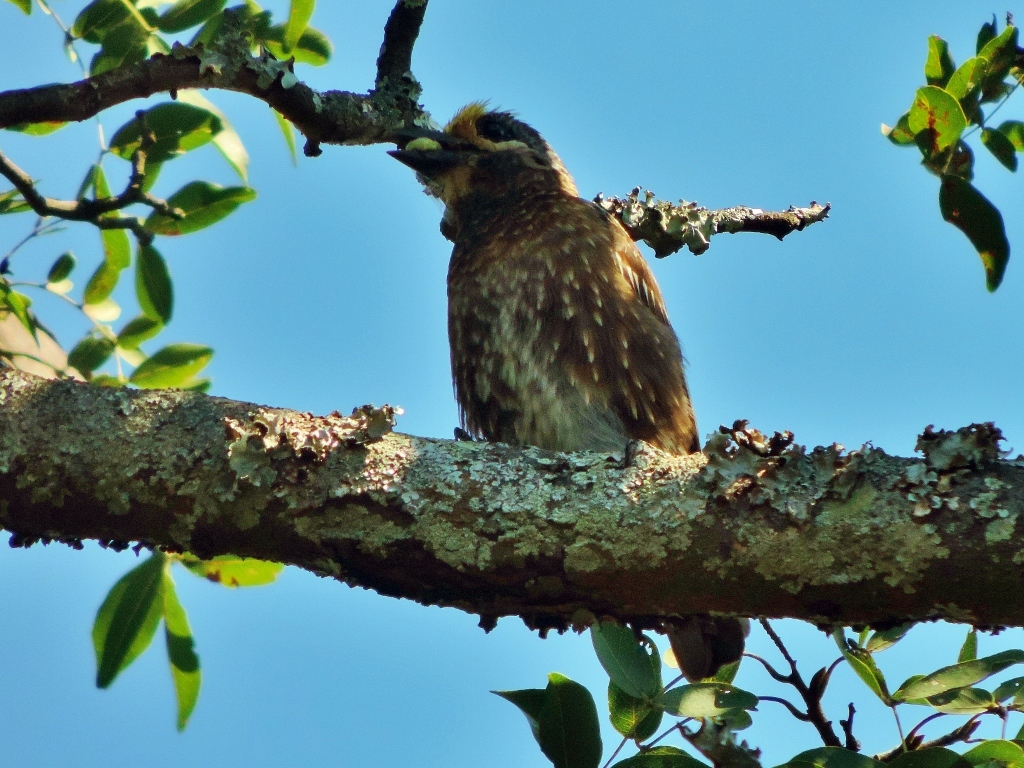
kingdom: Animalia
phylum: Chordata
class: Aves
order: Piciformes
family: Lybiidae
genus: Stactolaema
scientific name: Stactolaema whytii
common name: Whyte's barbet
